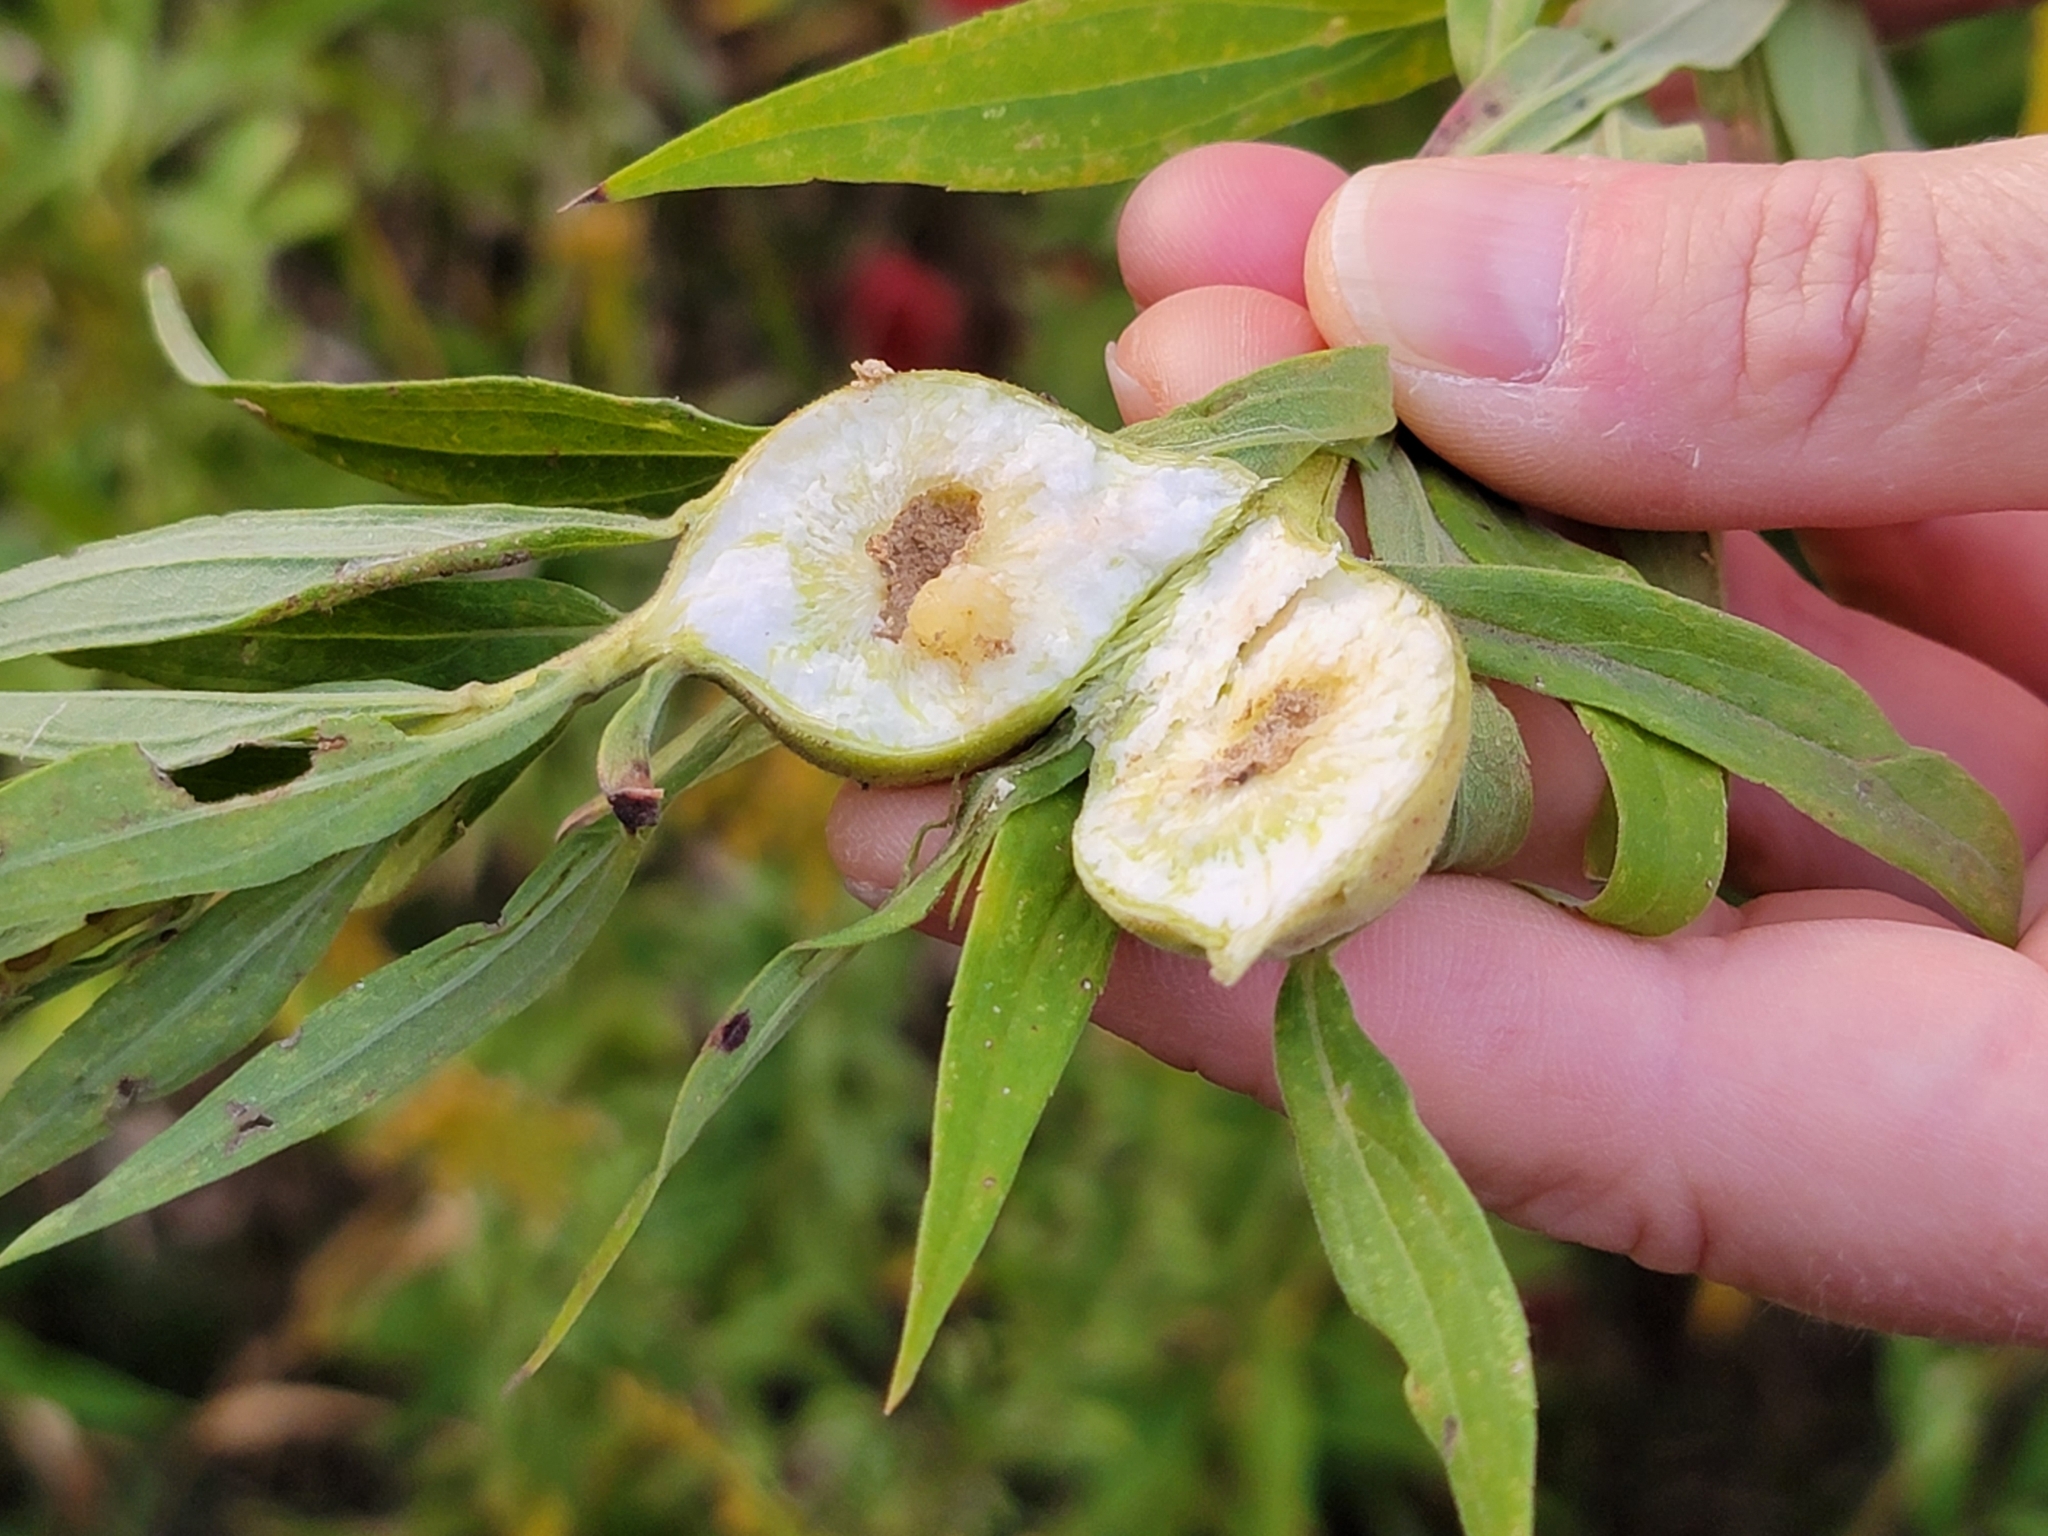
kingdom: Animalia
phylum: Arthropoda
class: Insecta
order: Diptera
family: Tephritidae
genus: Eurosta
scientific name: Eurosta solidaginis
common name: Goldenrod gall fly
